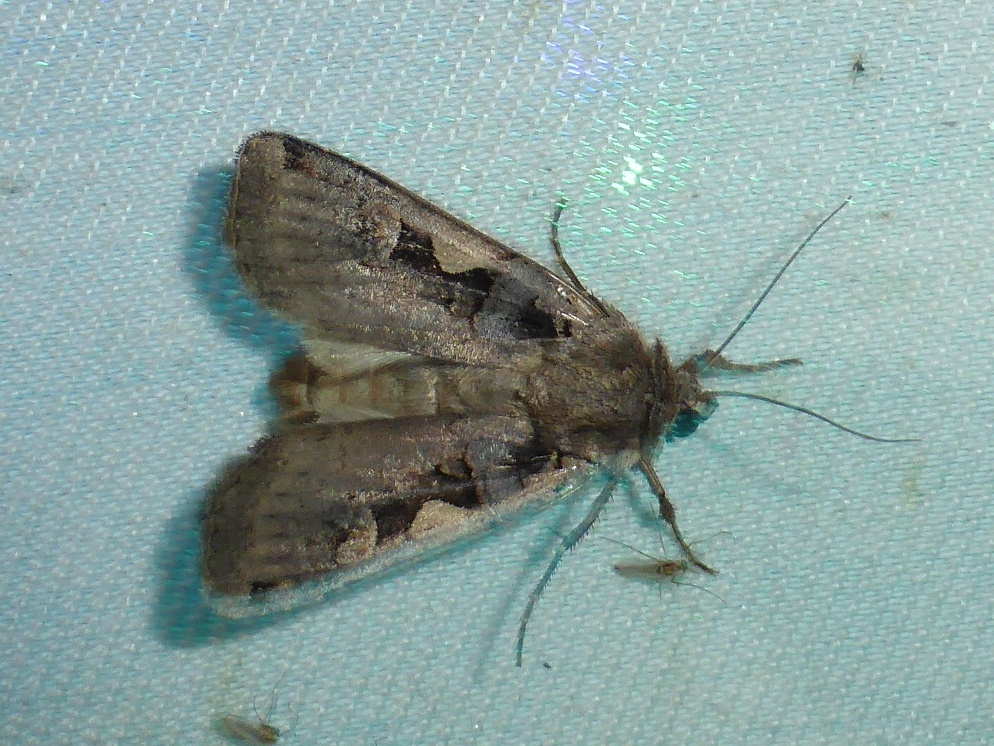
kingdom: Animalia
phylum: Arthropoda
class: Insecta
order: Lepidoptera
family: Noctuidae
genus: Xestia
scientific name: Xestia c-nigrum
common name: Setaceous hebrew character
